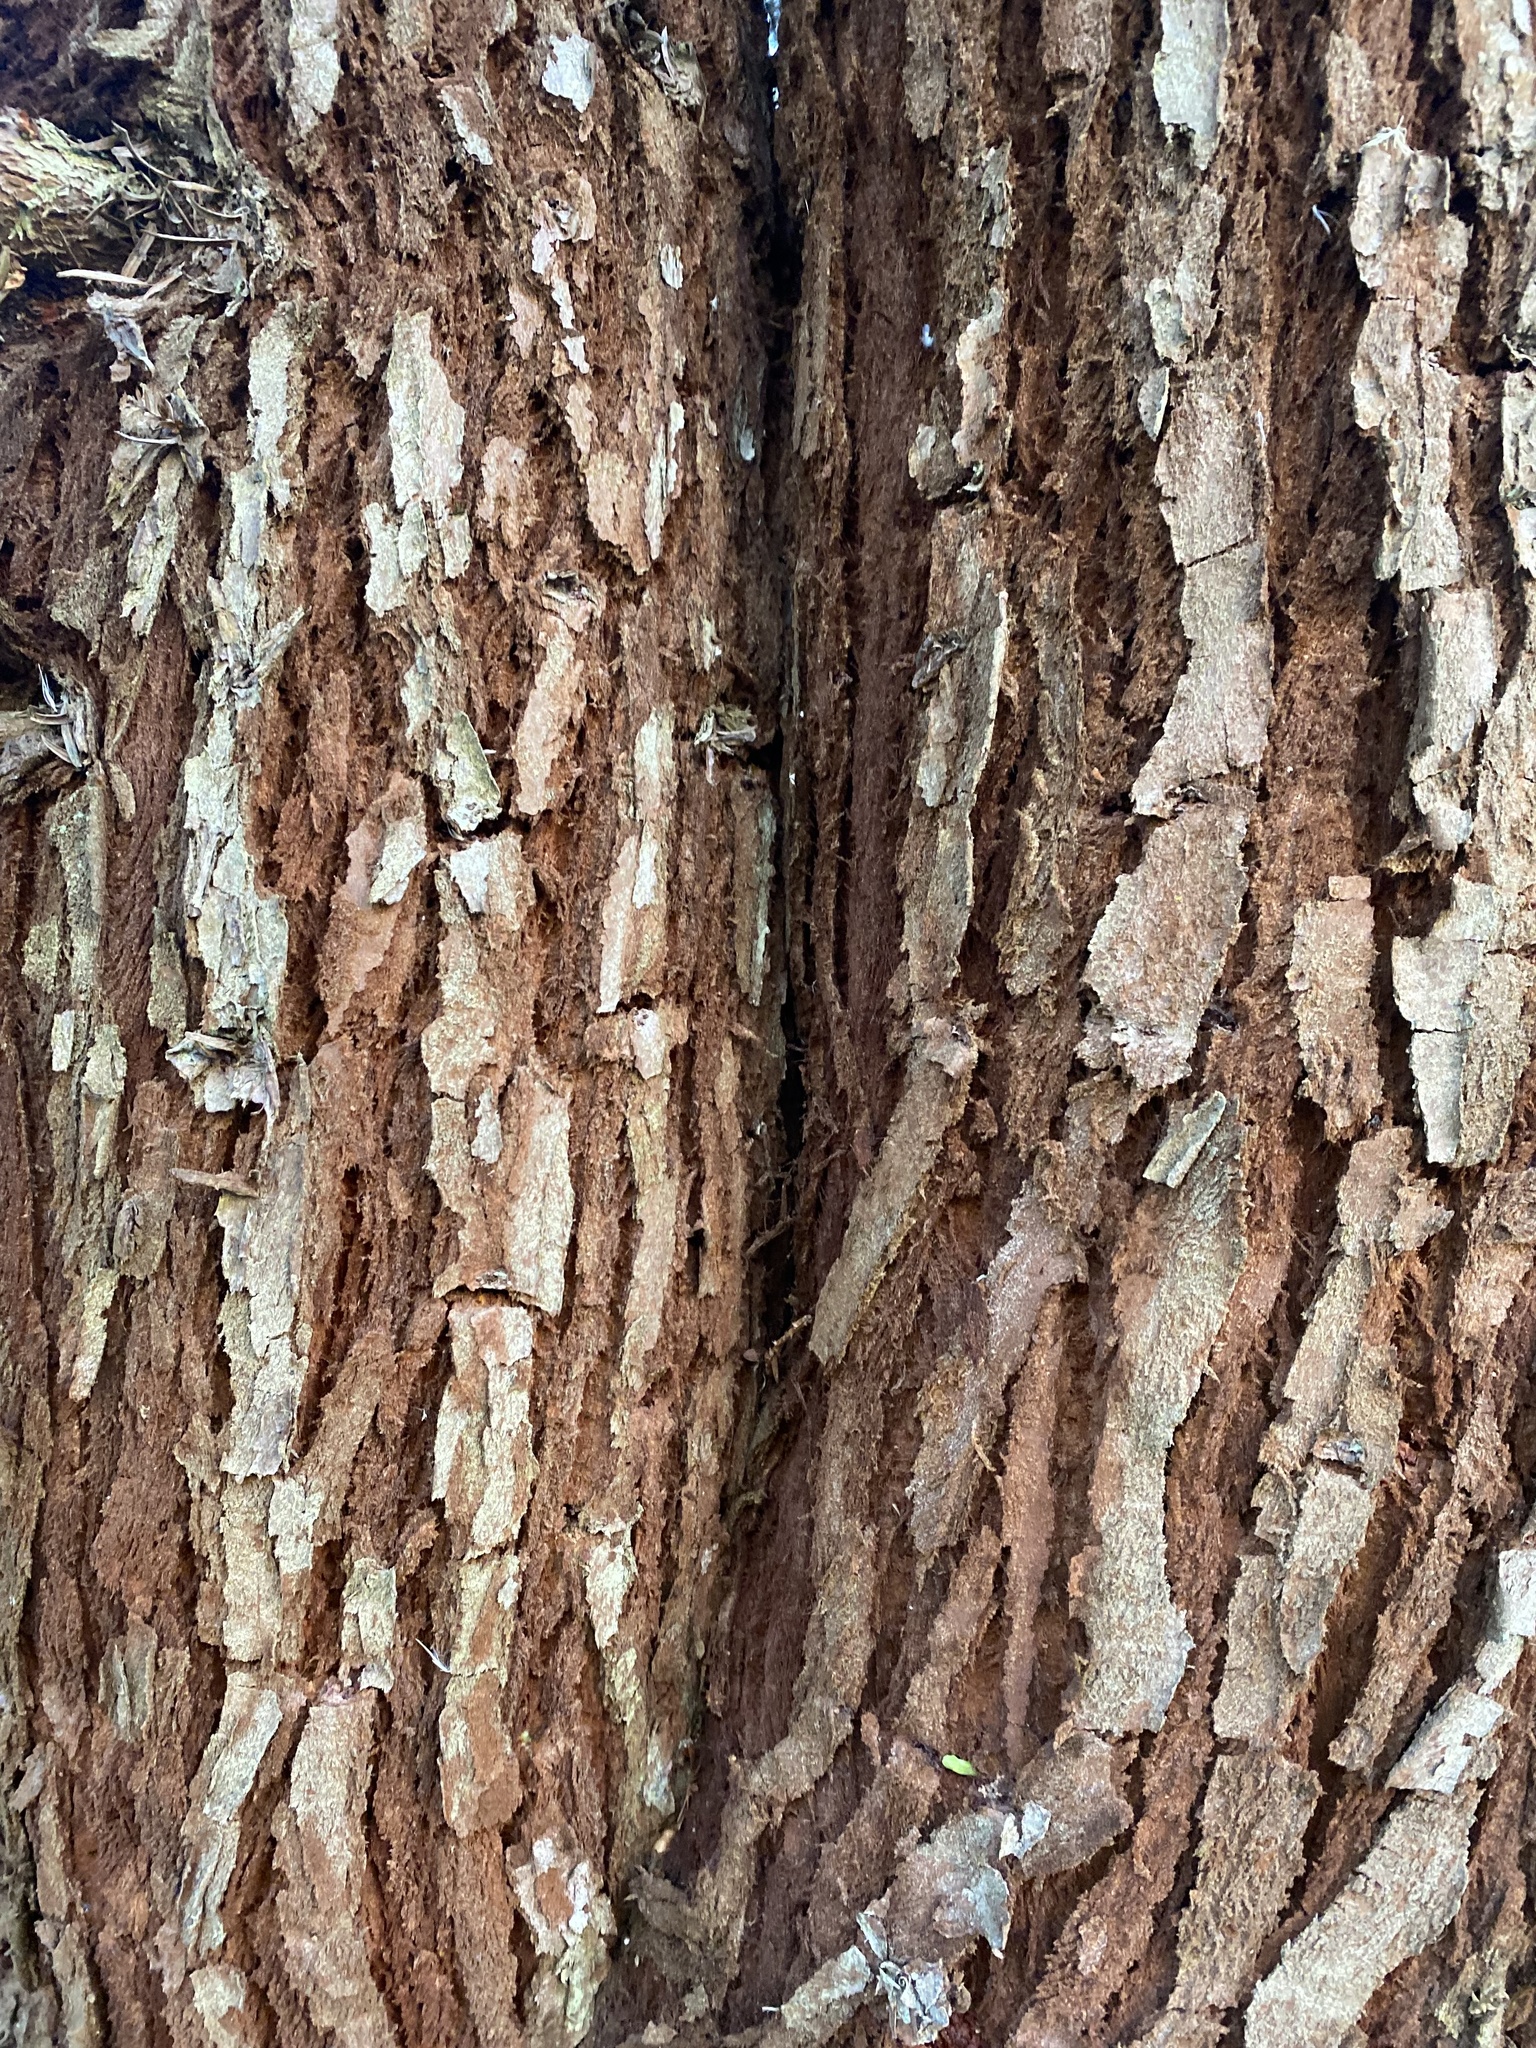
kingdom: Plantae
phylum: Tracheophyta
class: Pinopsida
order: Pinales
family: Cupressaceae
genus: Sequoia
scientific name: Sequoia sempervirens
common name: Coast redwood
